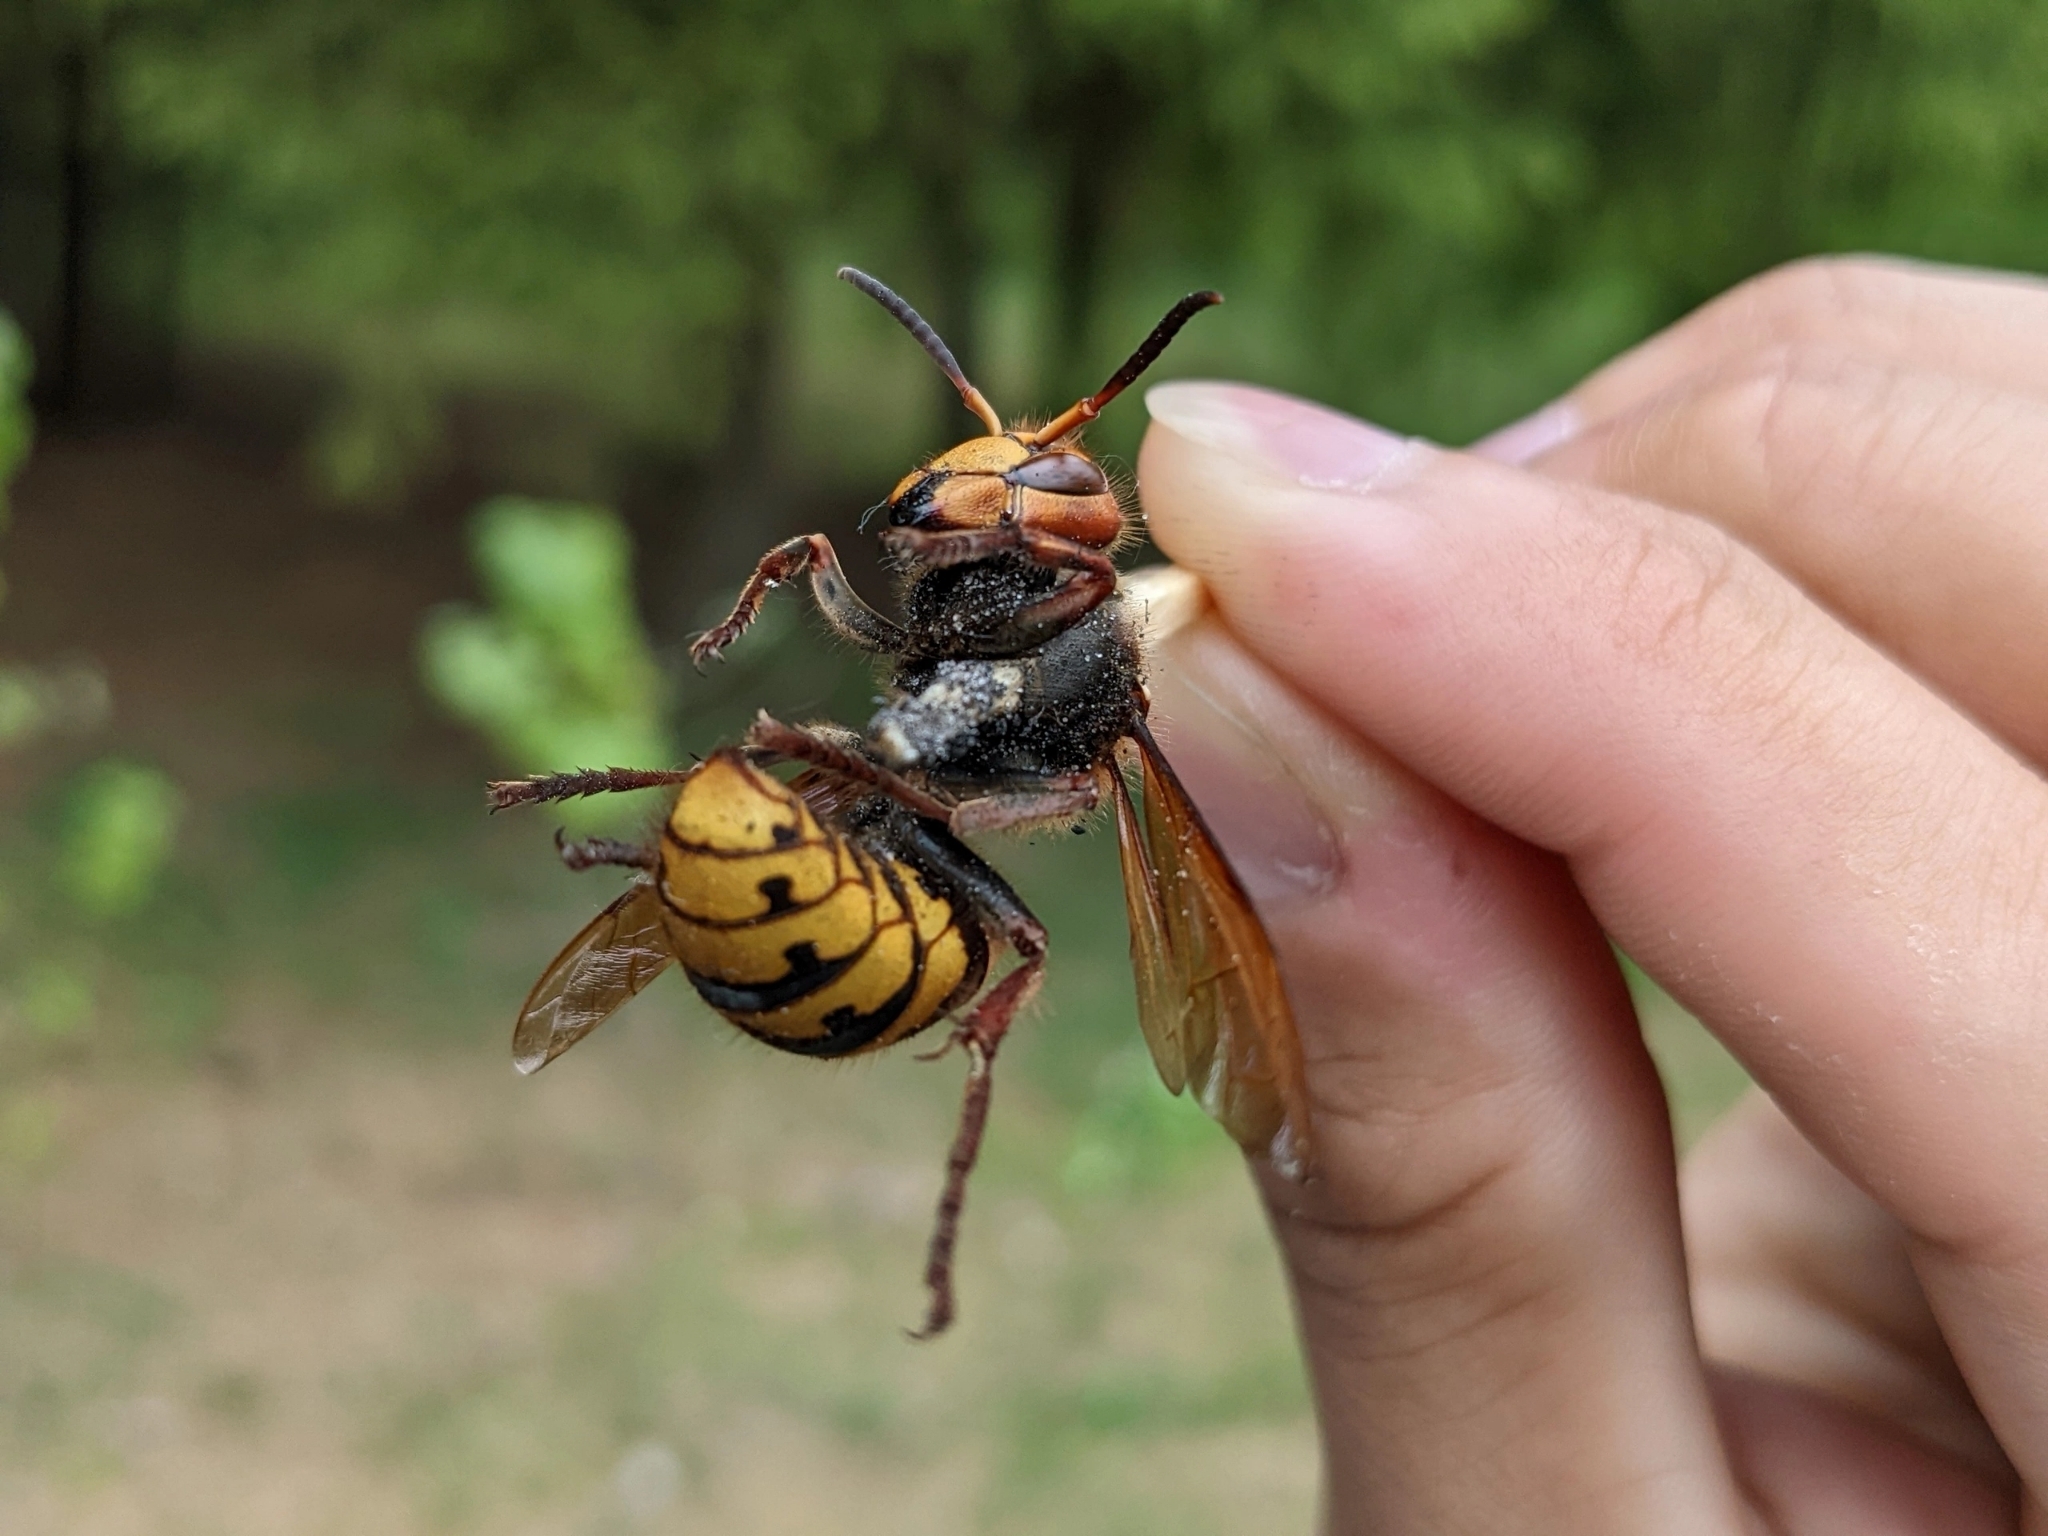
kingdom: Animalia
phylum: Arthropoda
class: Insecta
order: Hymenoptera
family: Vespidae
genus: Vespa
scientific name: Vespa crabro
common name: Hornet
